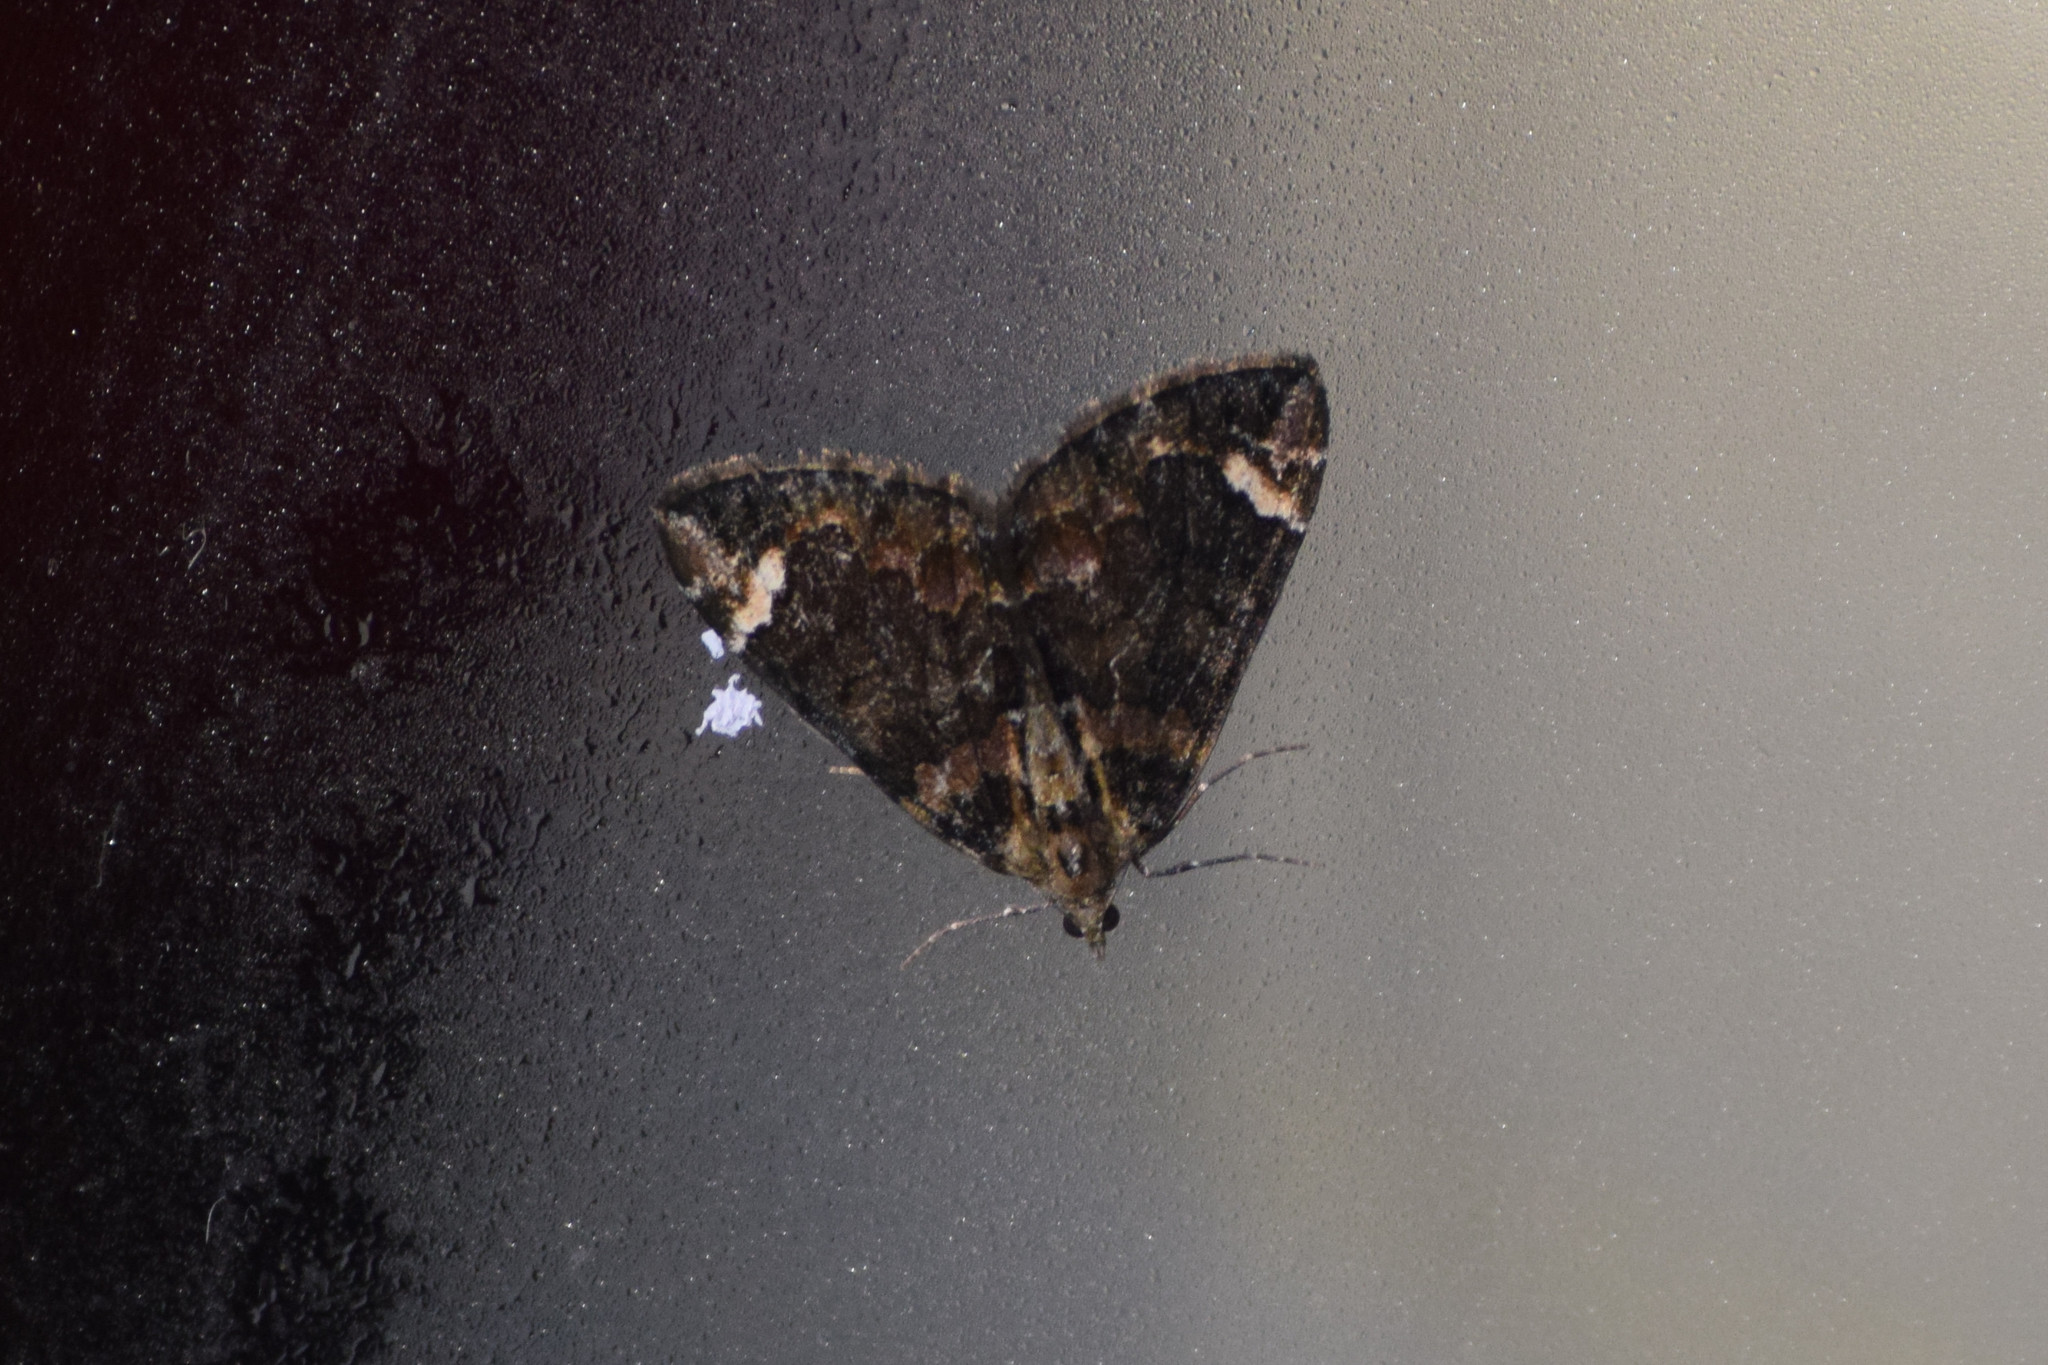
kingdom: Animalia
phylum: Arthropoda
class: Insecta
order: Lepidoptera
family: Geometridae
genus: Dysstroma
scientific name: Dysstroma subapicaria
